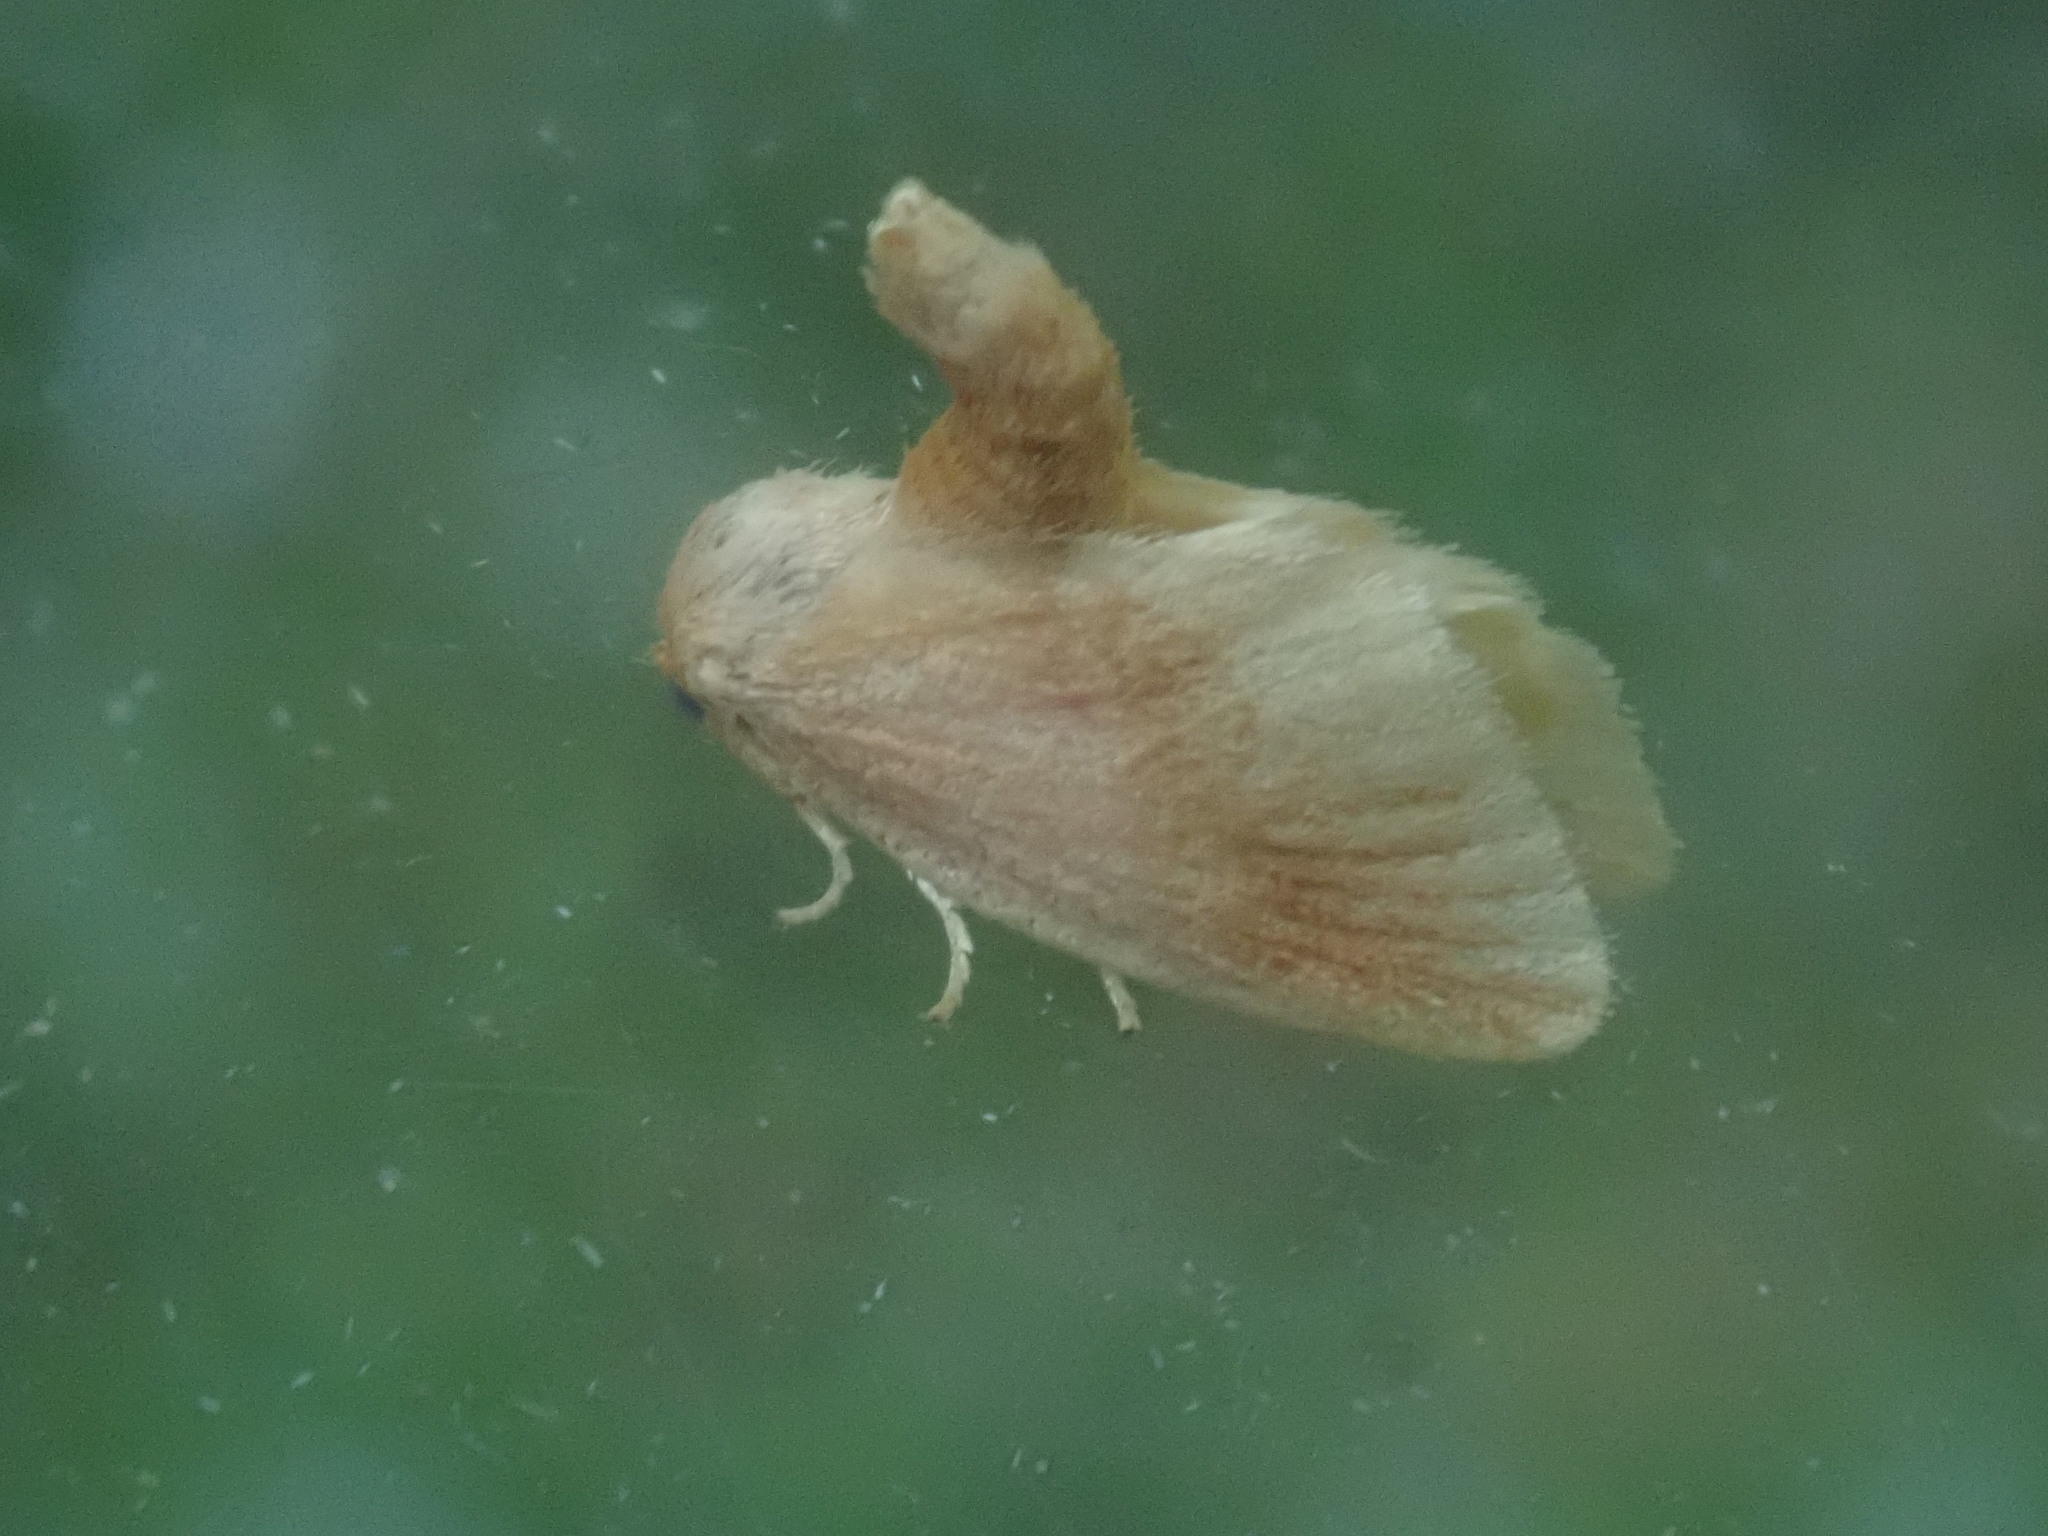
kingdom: Animalia
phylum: Arthropoda
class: Insecta
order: Lepidoptera
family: Limacodidae
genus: Tortricidia
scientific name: Tortricidia testacea
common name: Early button slug moth
